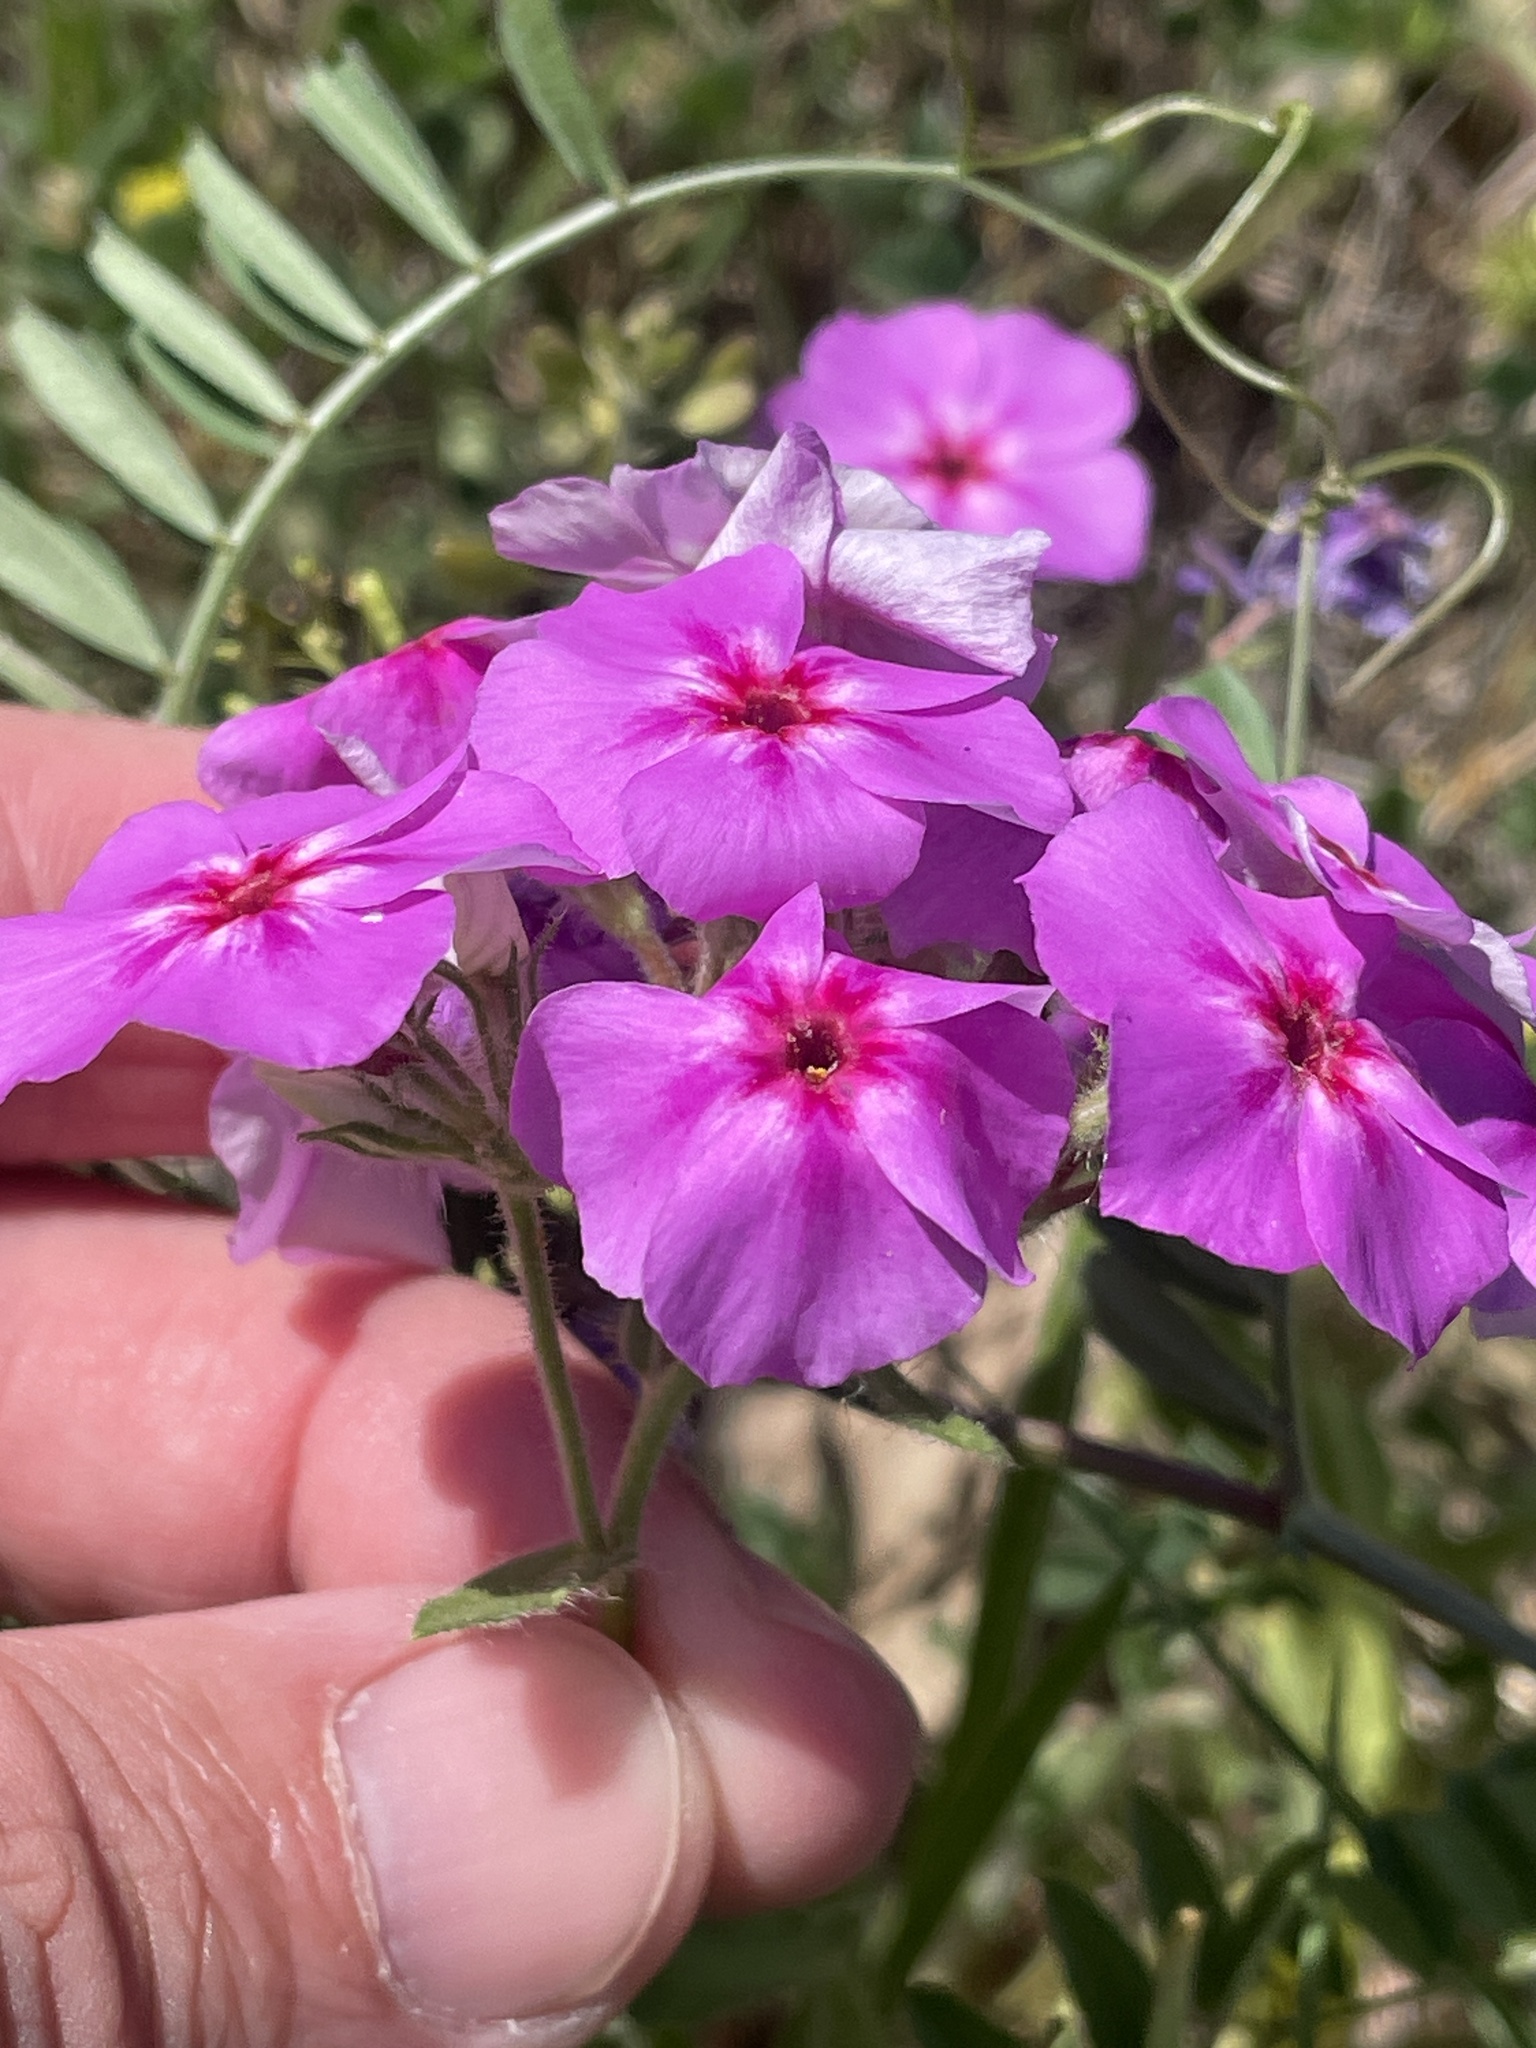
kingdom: Plantae
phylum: Tracheophyta
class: Magnoliopsida
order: Ericales
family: Polemoniaceae
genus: Phlox
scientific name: Phlox drummondii
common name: Drummond's phlox
